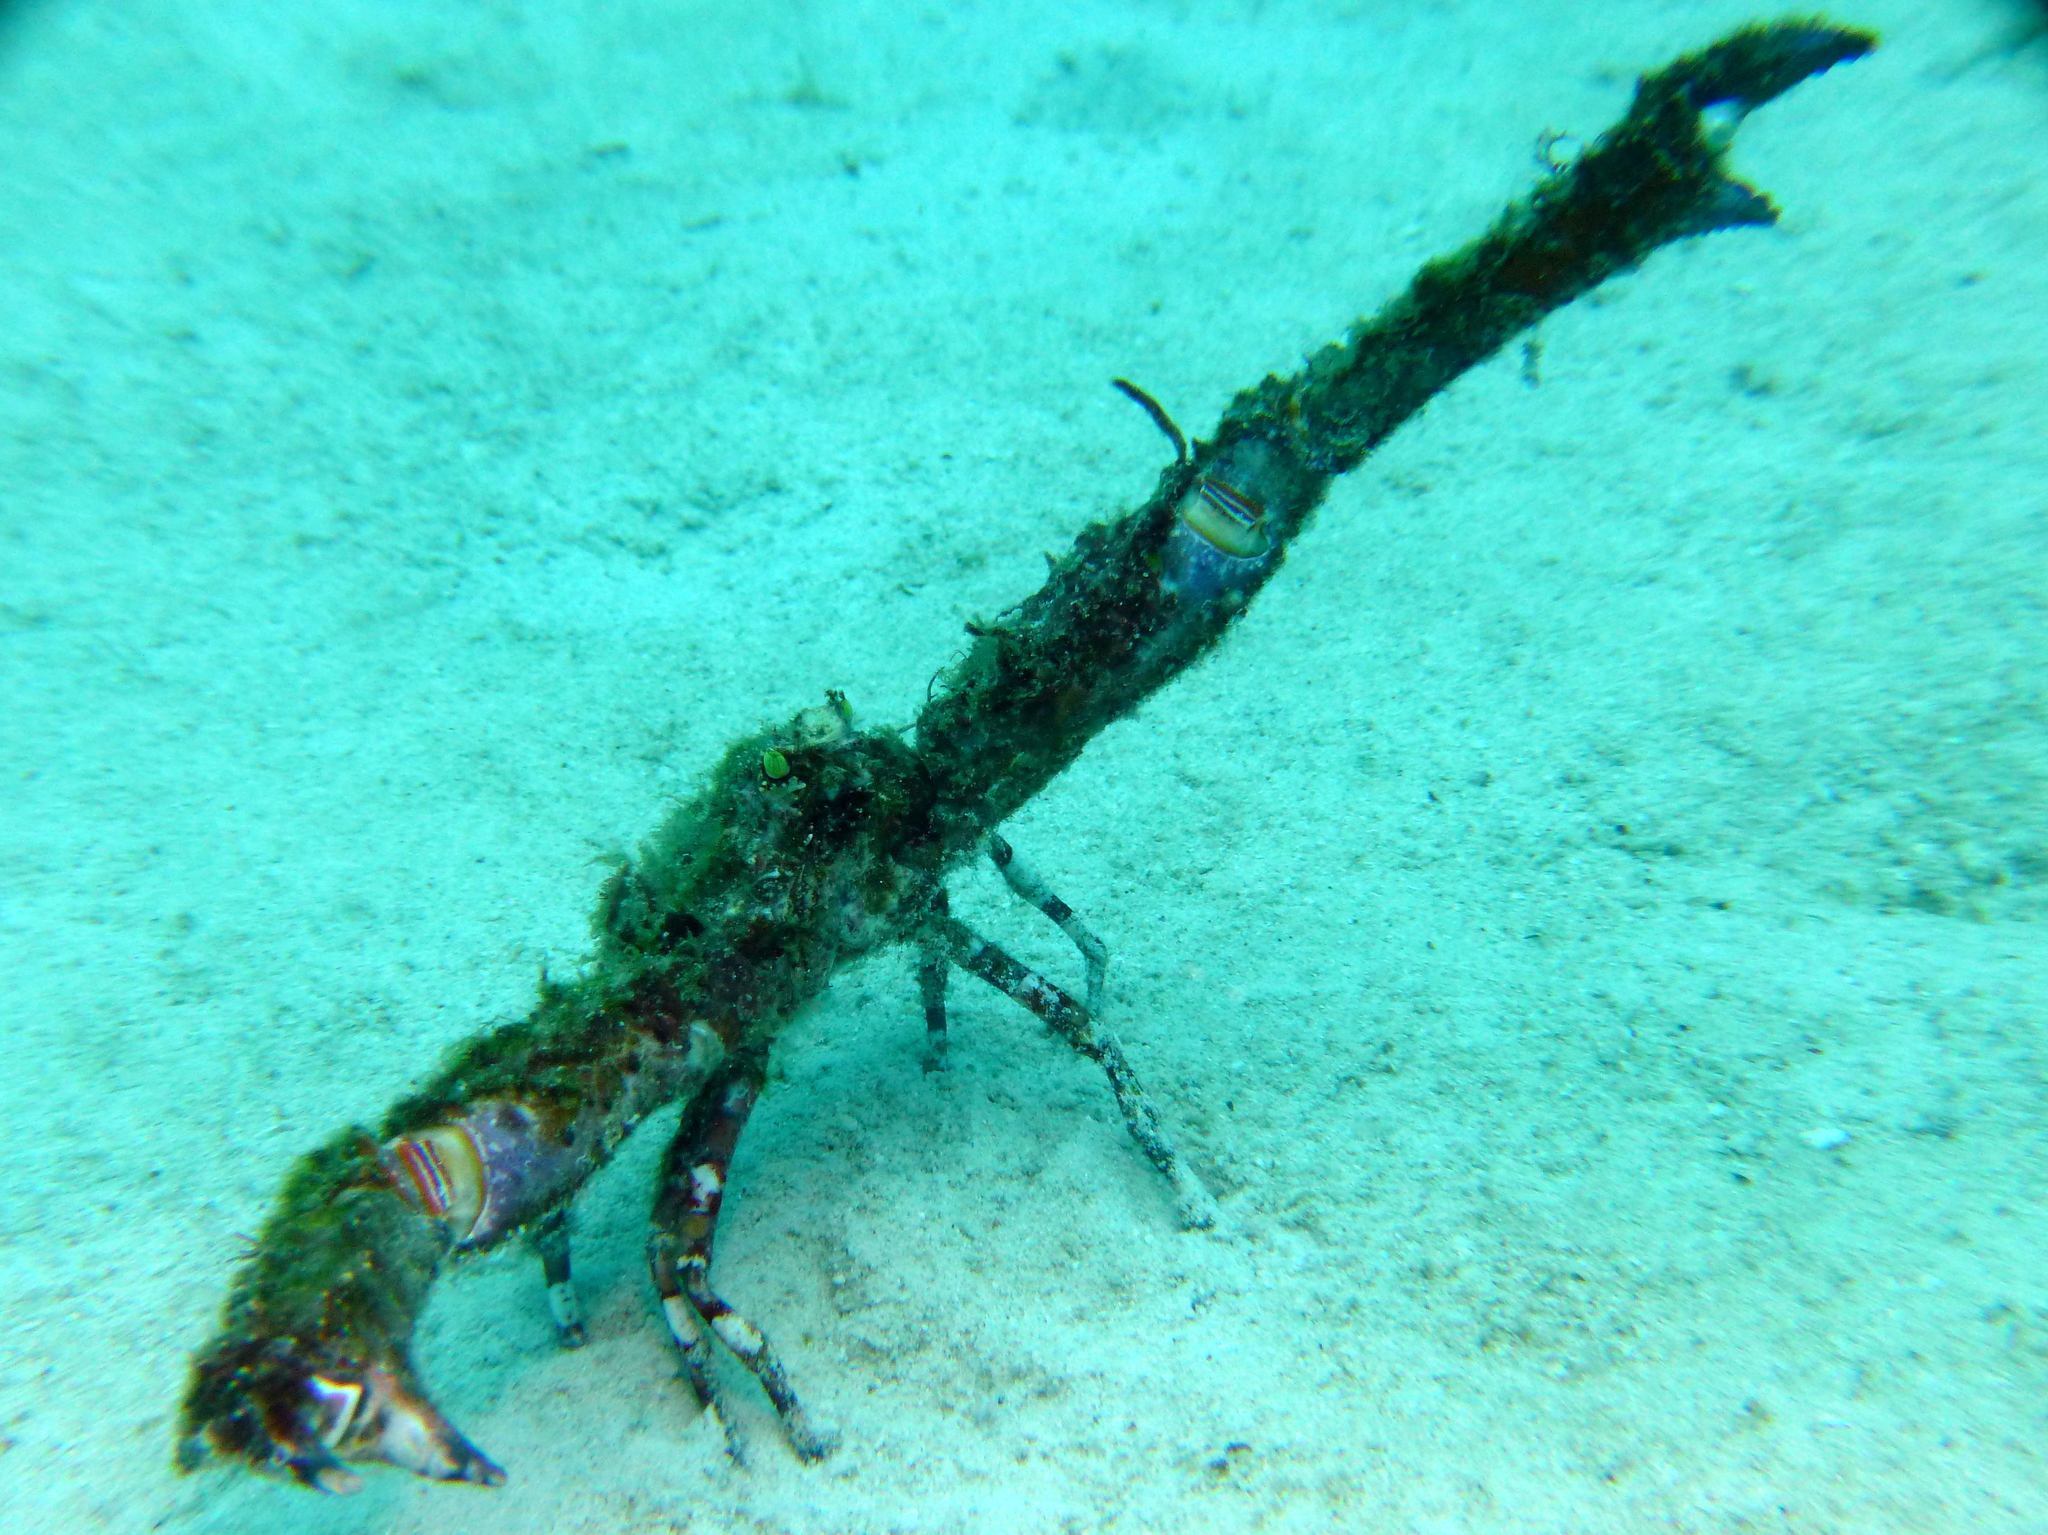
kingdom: Animalia
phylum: Arthropoda
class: Malacostraca
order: Decapoda
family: Parthenopidae
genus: Rhinolambrus
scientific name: Rhinolambrus contrarius
